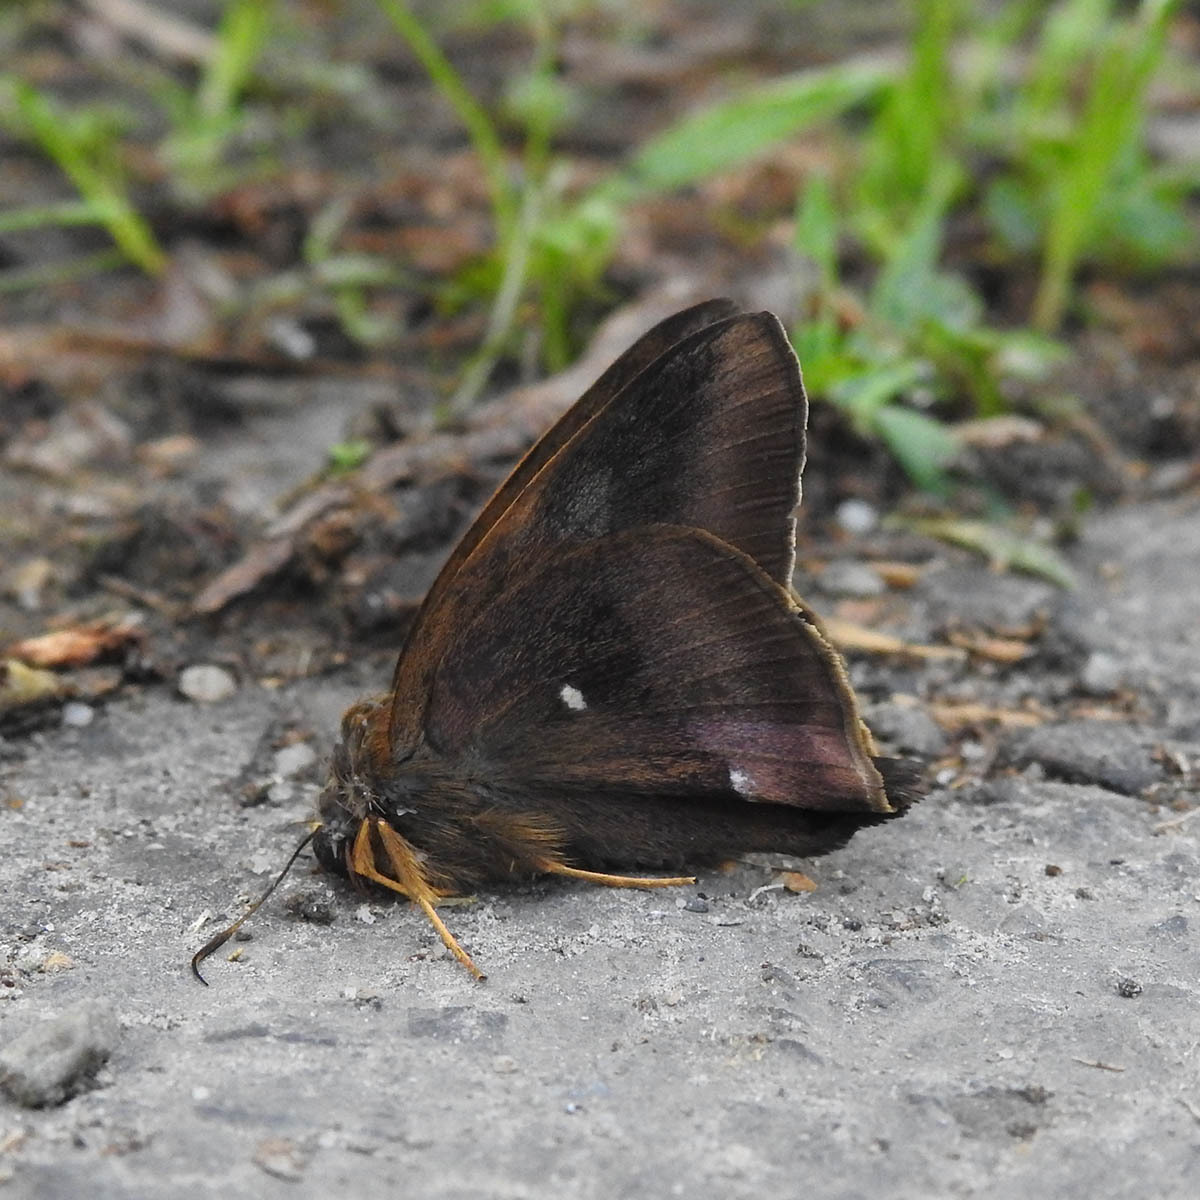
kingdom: Animalia
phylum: Arthropoda
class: Insecta
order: Lepidoptera
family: Hesperiidae
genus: Hasora
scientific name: Hasora badra
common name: Common awl
